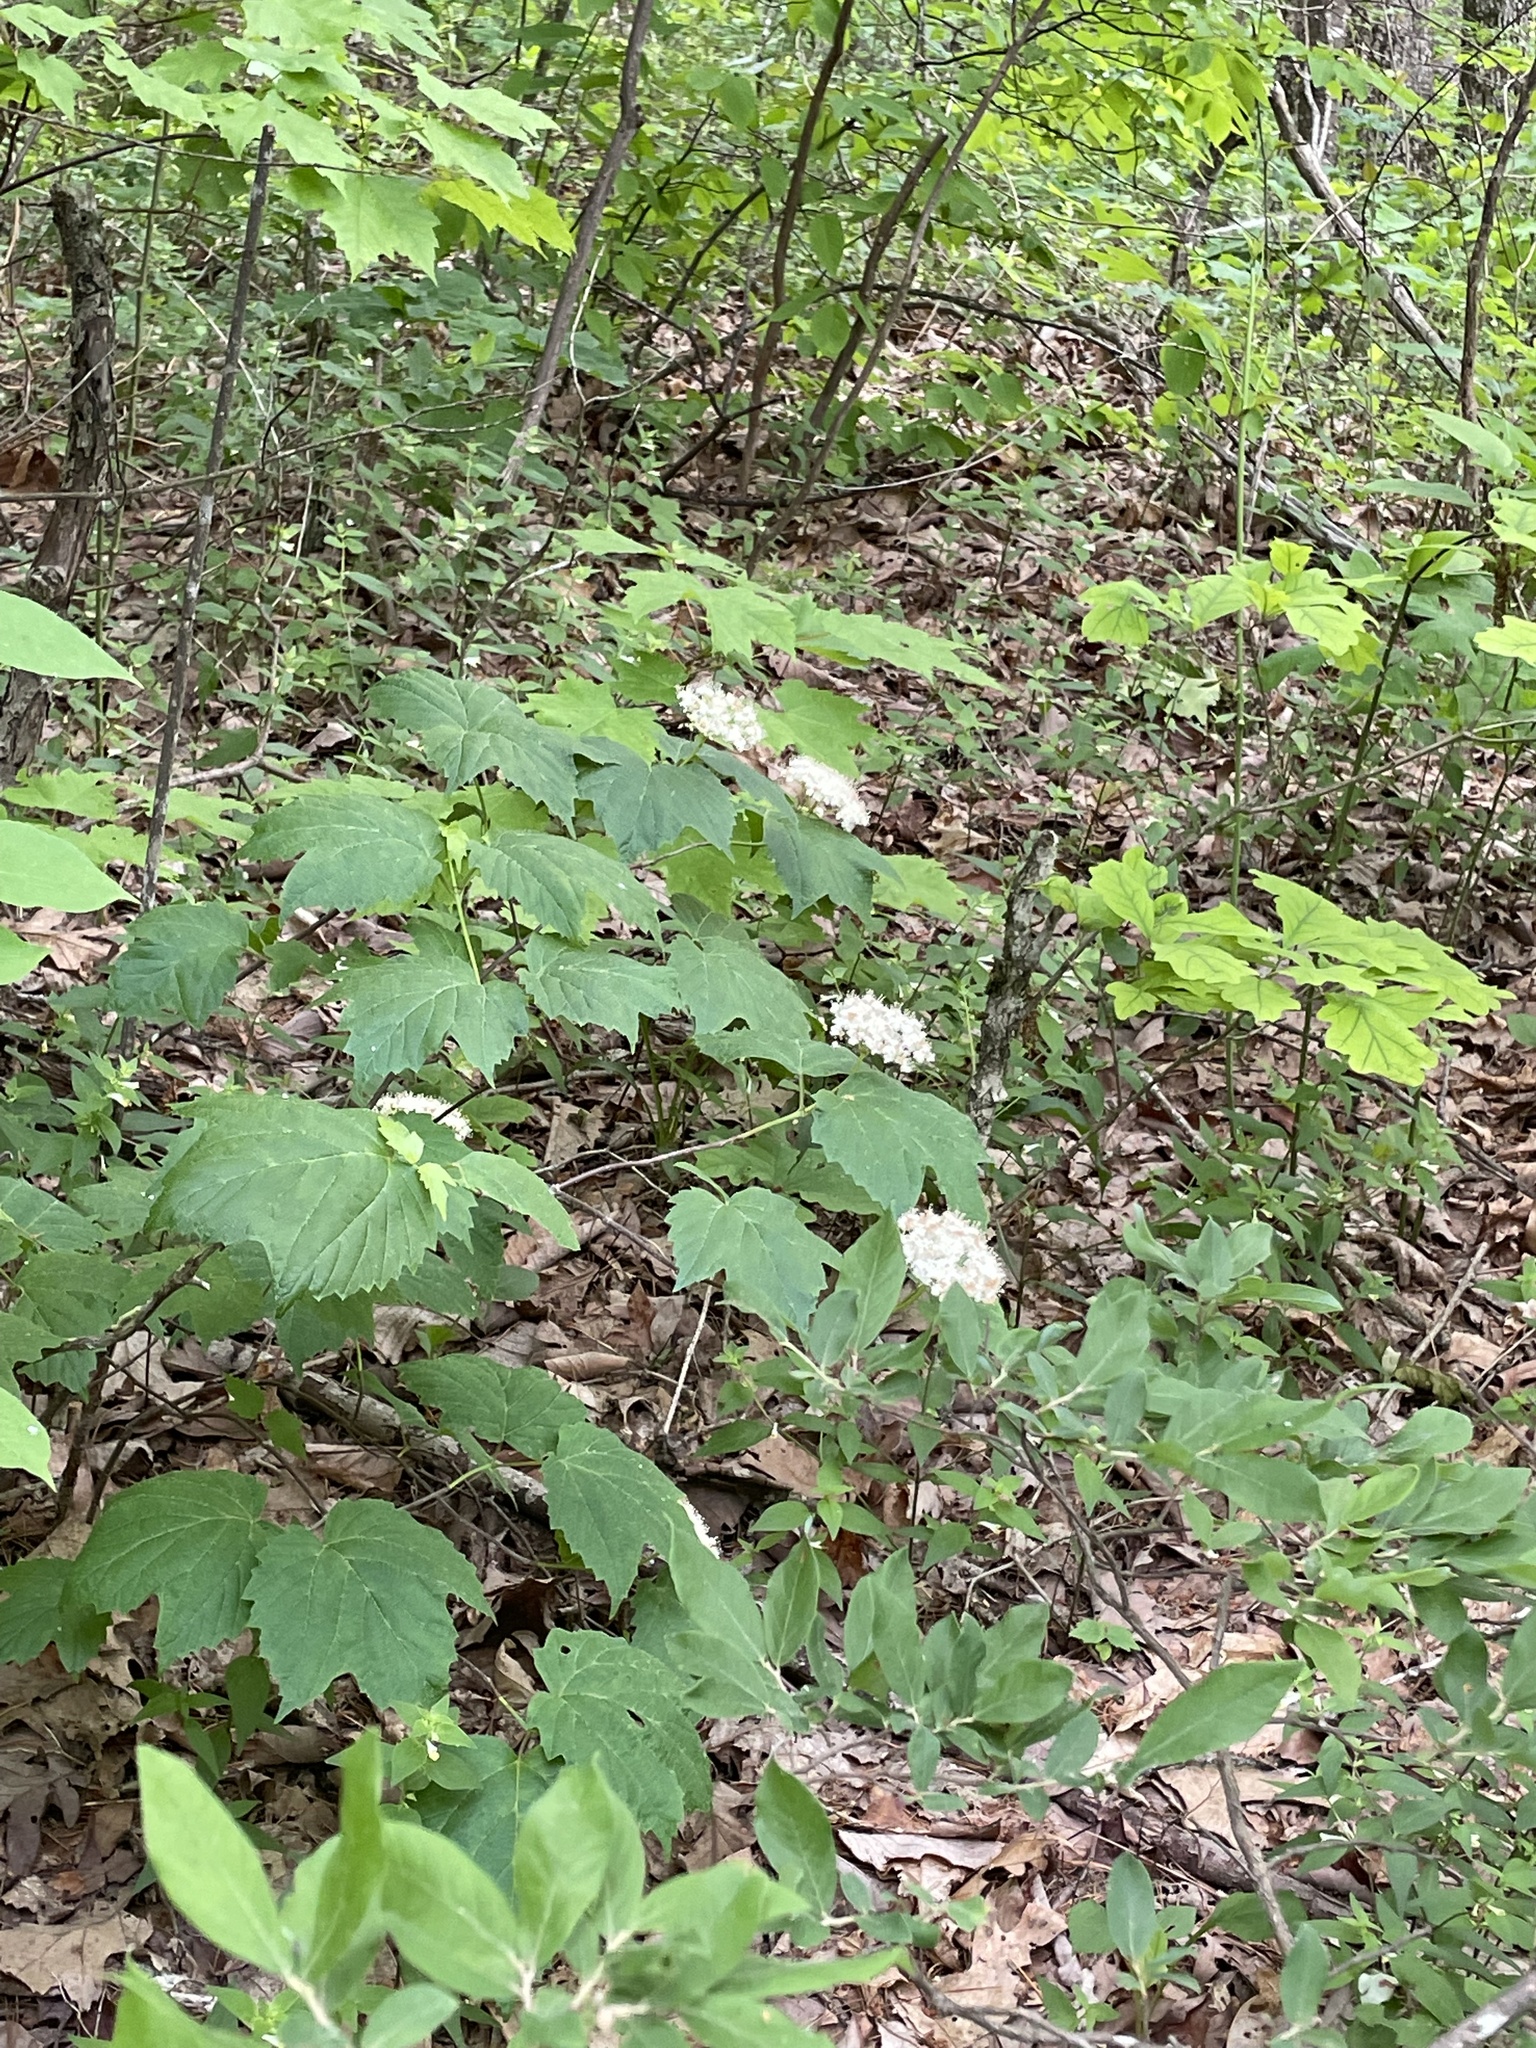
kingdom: Plantae
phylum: Tracheophyta
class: Magnoliopsida
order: Cornales
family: Hydrangeaceae
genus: Hydrangea
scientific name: Hydrangea arborescens
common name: Sevenbark
